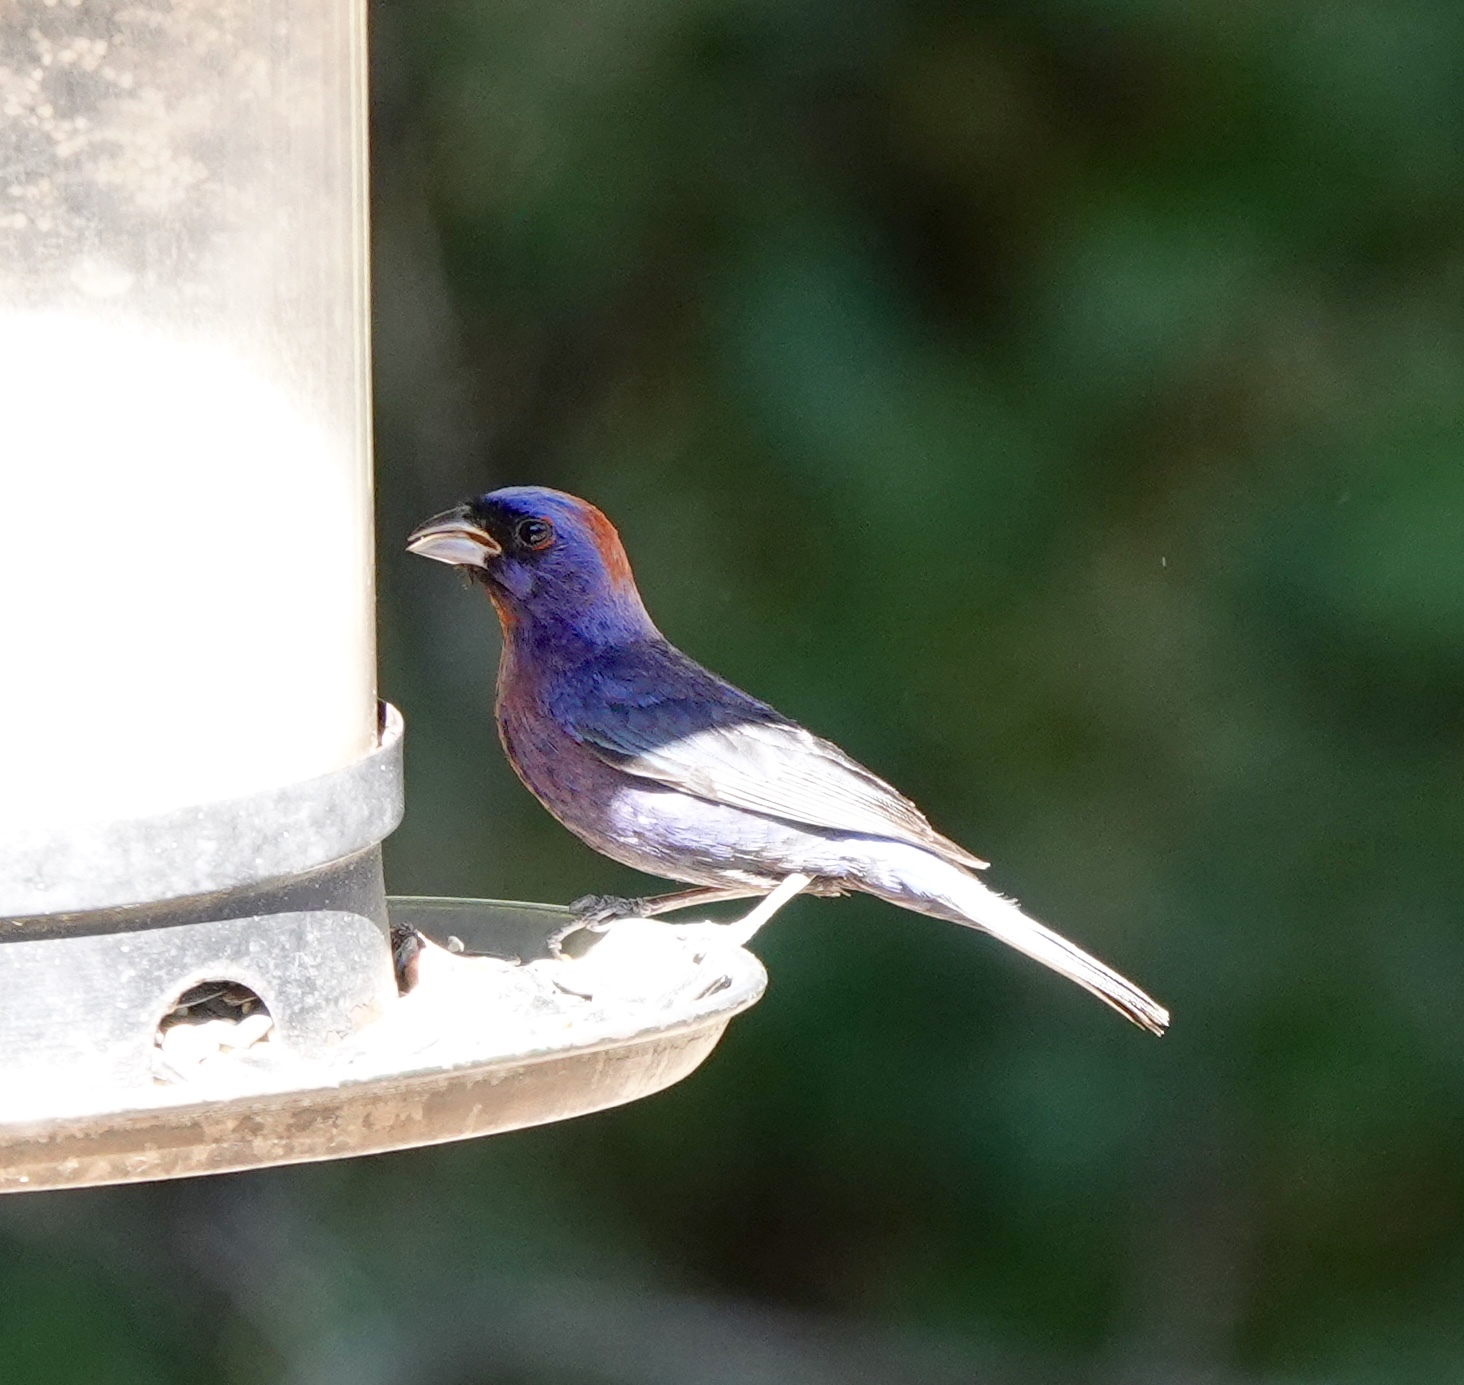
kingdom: Animalia
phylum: Chordata
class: Aves
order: Passeriformes
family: Cardinalidae
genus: Passerina
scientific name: Passerina versicolor
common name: Varied bunting
